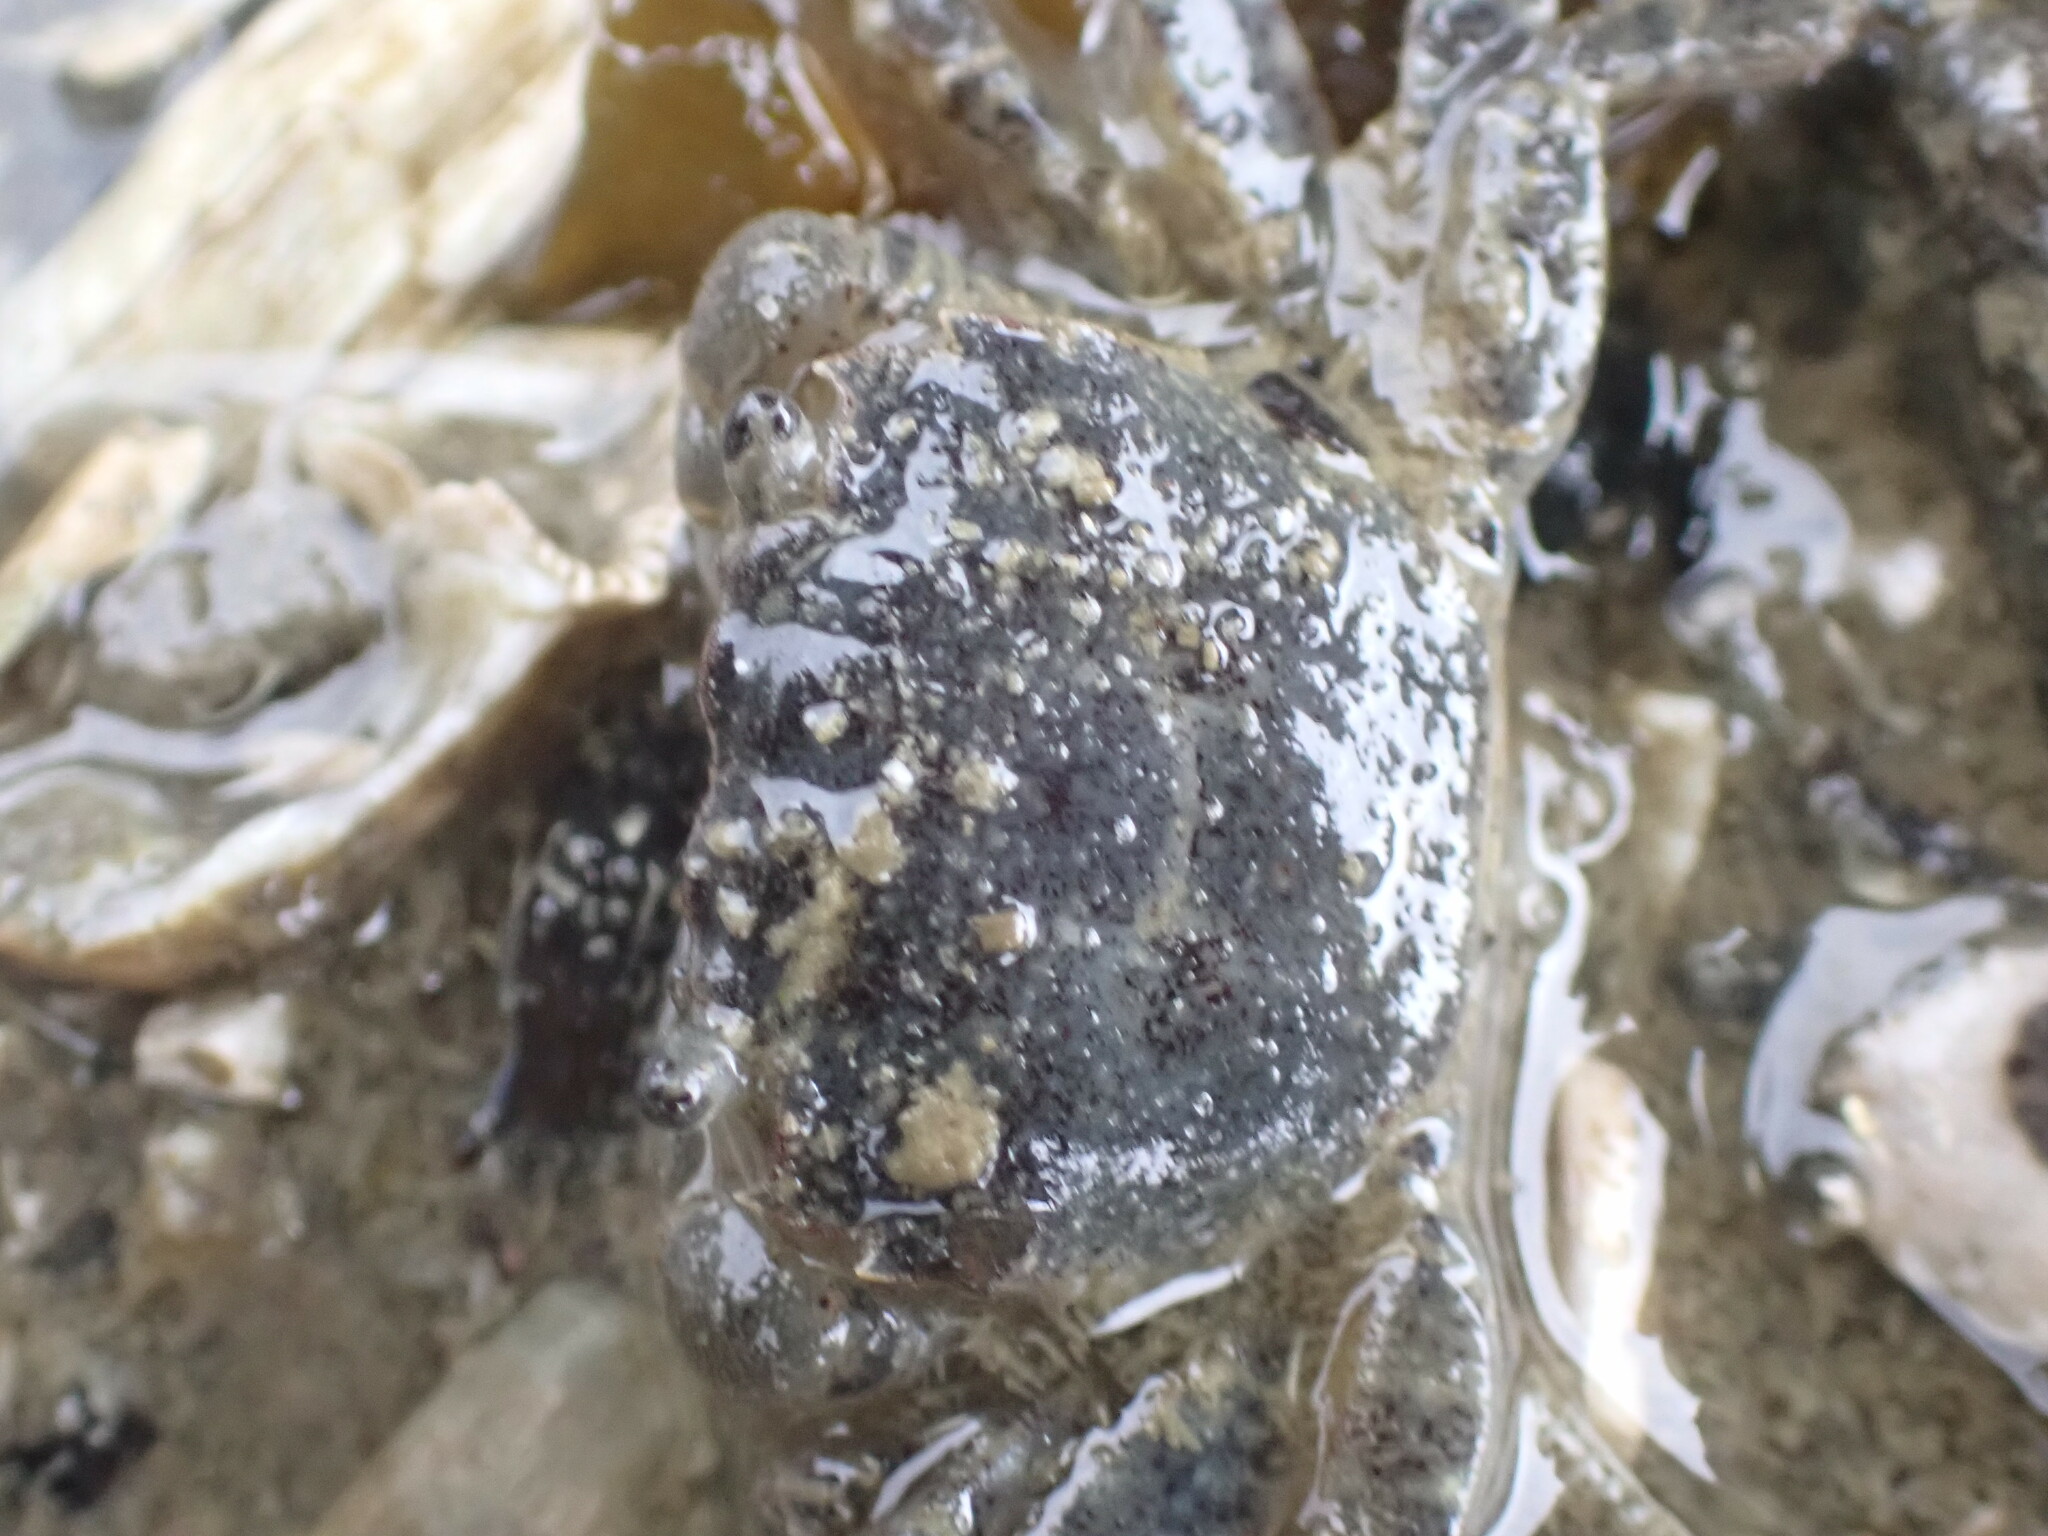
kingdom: Animalia
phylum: Arthropoda
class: Malacostraca
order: Decapoda
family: Varunidae
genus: Hemigrapsus
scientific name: Hemigrapsus oregonensis
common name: Yellow shore crab
